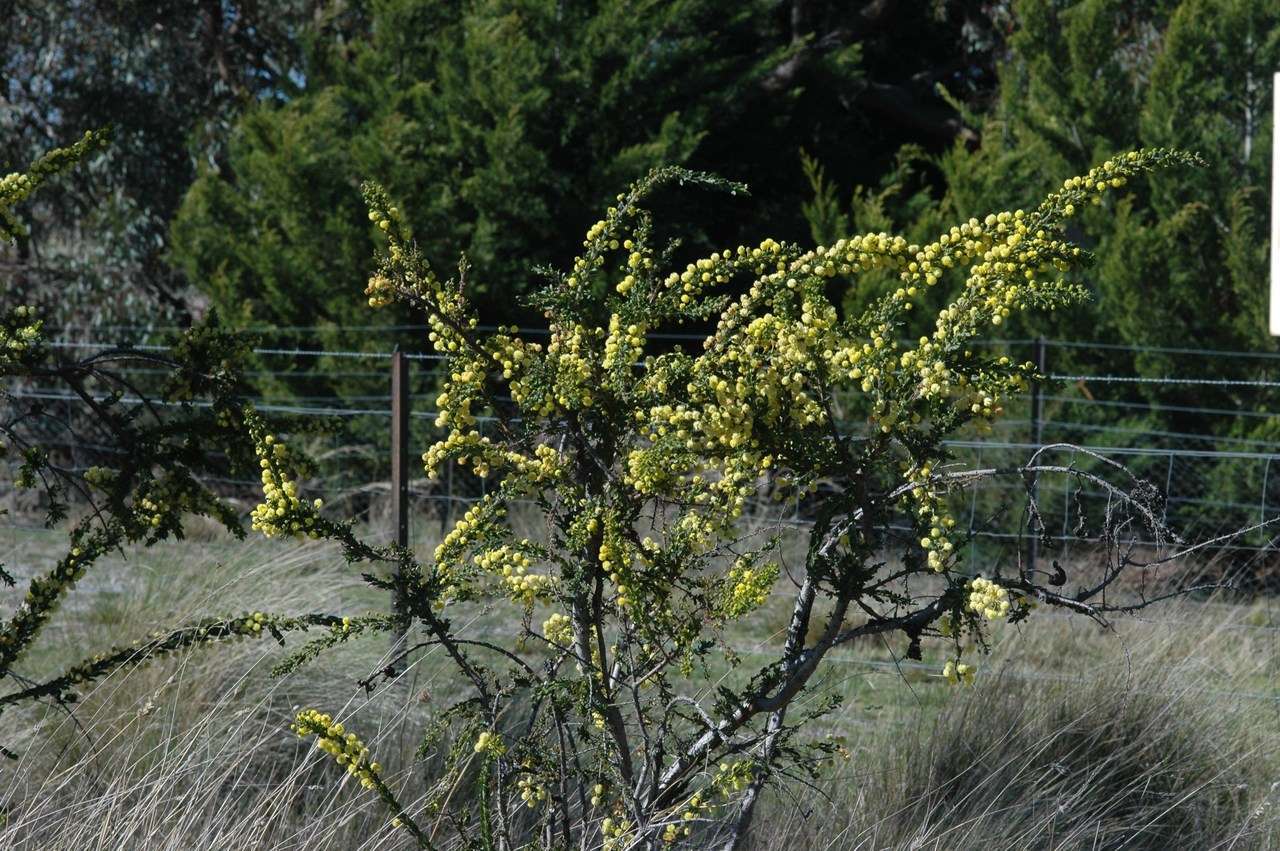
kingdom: Plantae
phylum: Tracheophyta
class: Magnoliopsida
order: Fabales
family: Fabaceae
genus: Acacia
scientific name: Acacia paradoxa
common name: Paradox acacia
